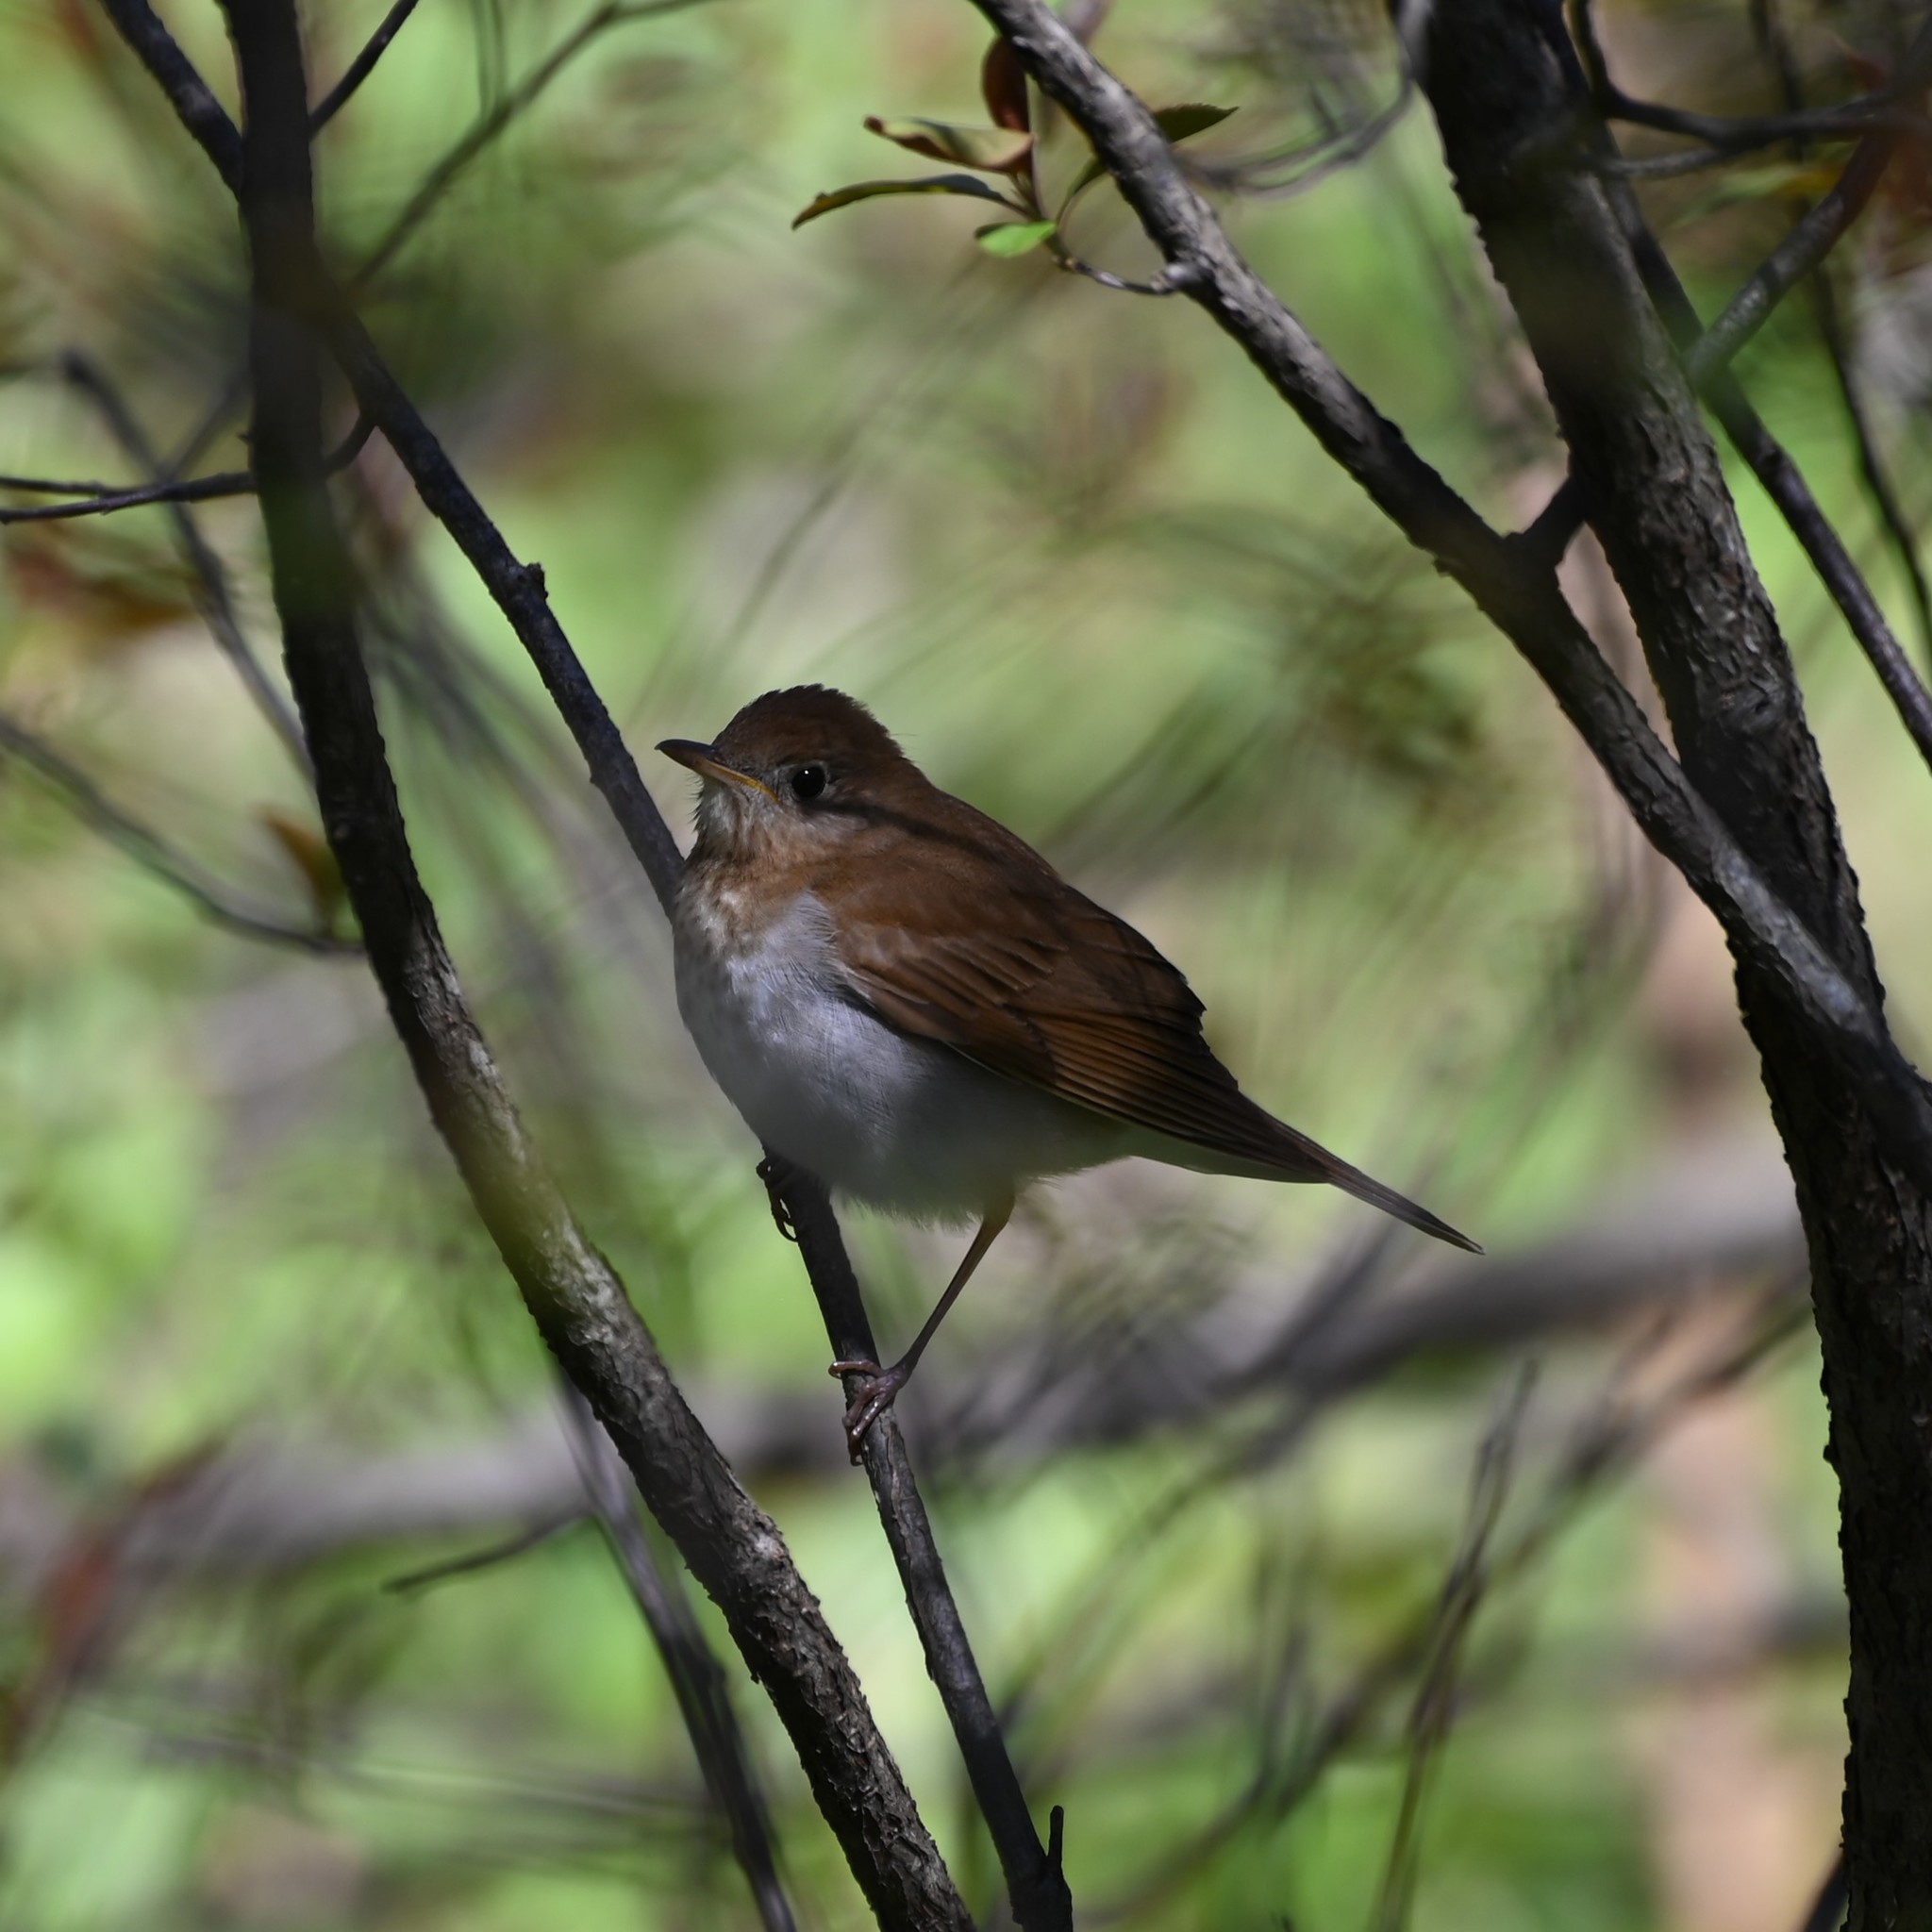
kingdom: Animalia
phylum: Chordata
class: Aves
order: Passeriformes
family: Turdidae
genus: Catharus
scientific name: Catharus fuscescens
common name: Veery
